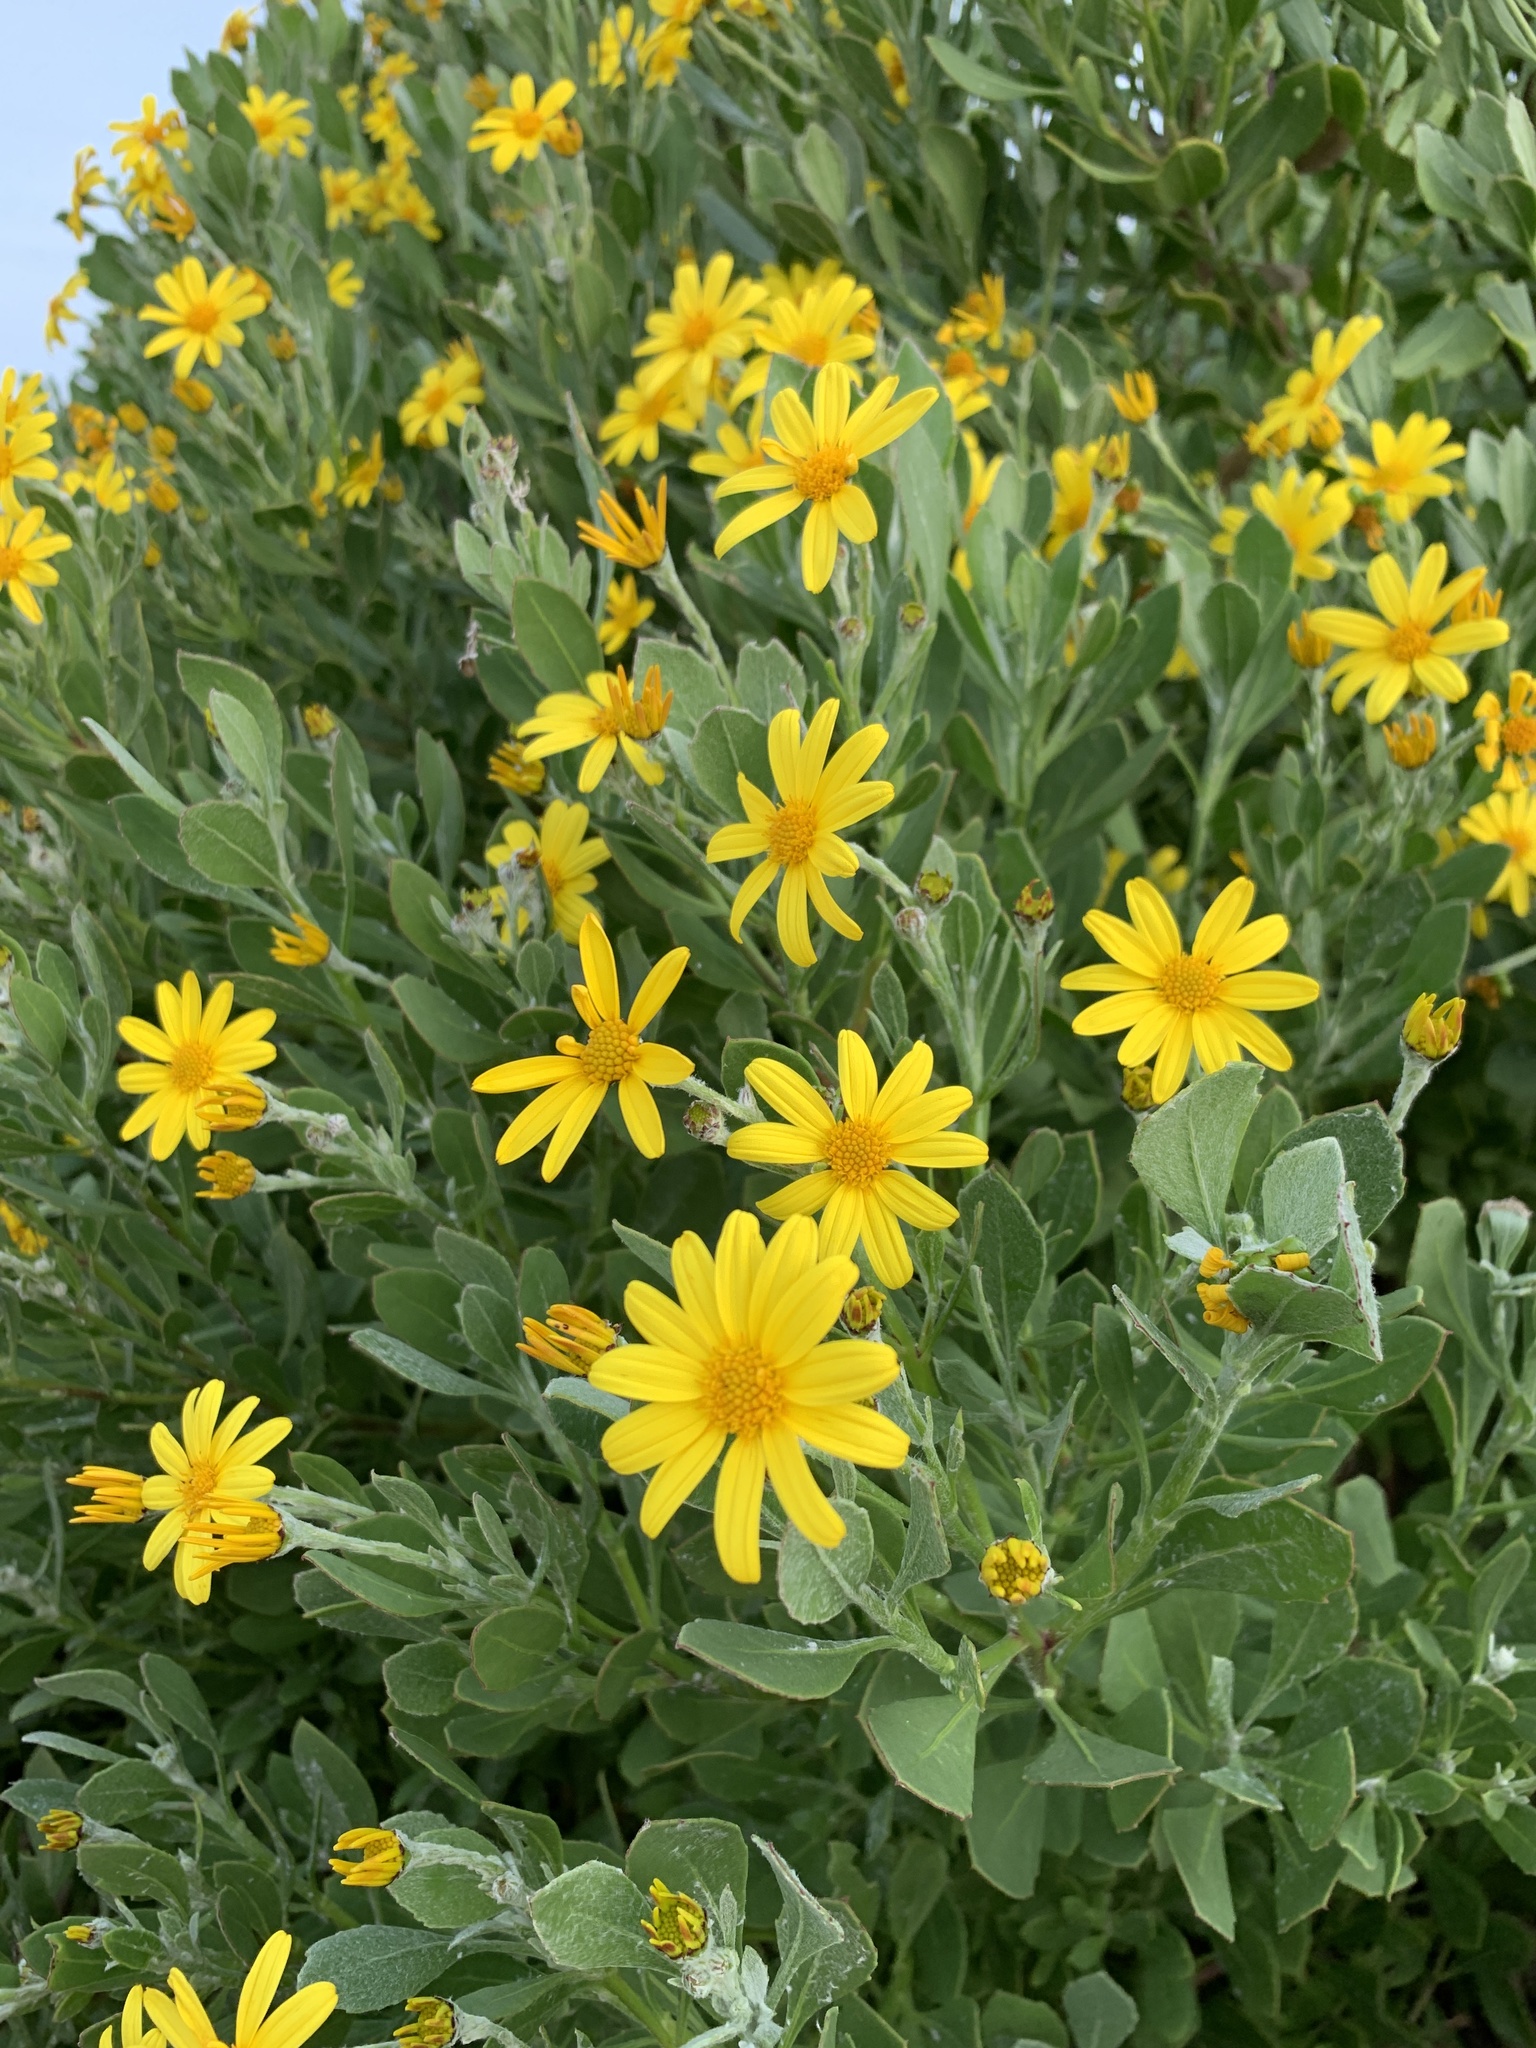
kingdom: Plantae
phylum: Tracheophyta
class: Magnoliopsida
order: Asterales
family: Asteraceae
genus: Osteospermum
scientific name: Osteospermum moniliferum
